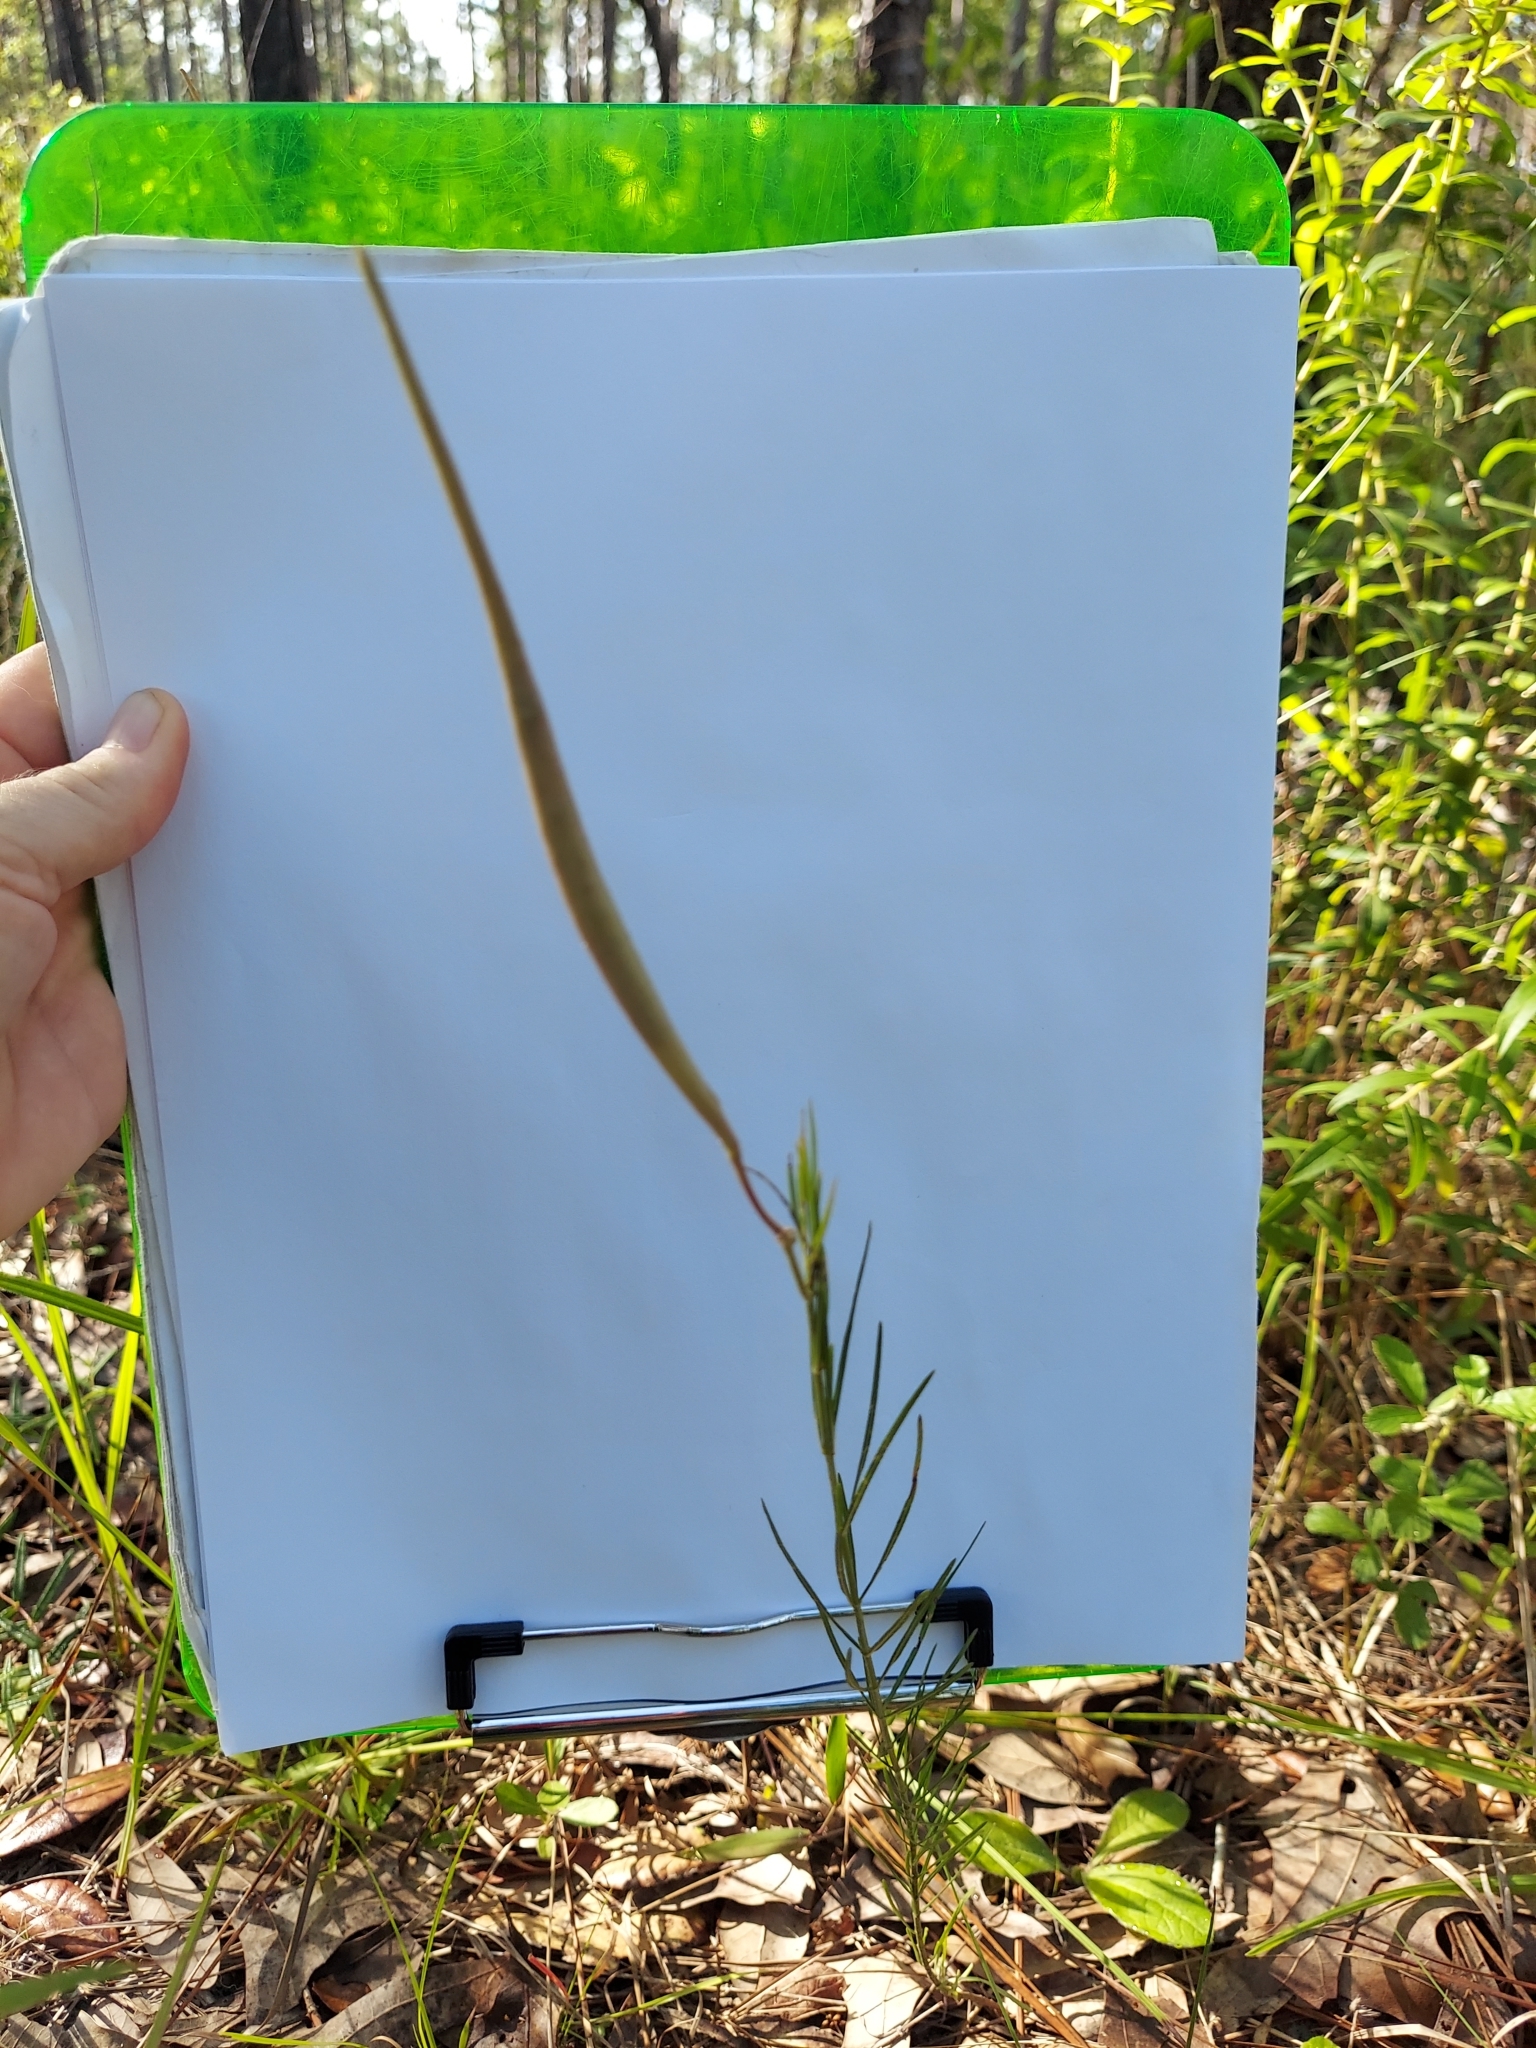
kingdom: Plantae
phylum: Tracheophyta
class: Magnoliopsida
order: Gentianales
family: Apocynaceae
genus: Asclepias
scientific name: Asclepias verticillata
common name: Eastern whorled milkweed
